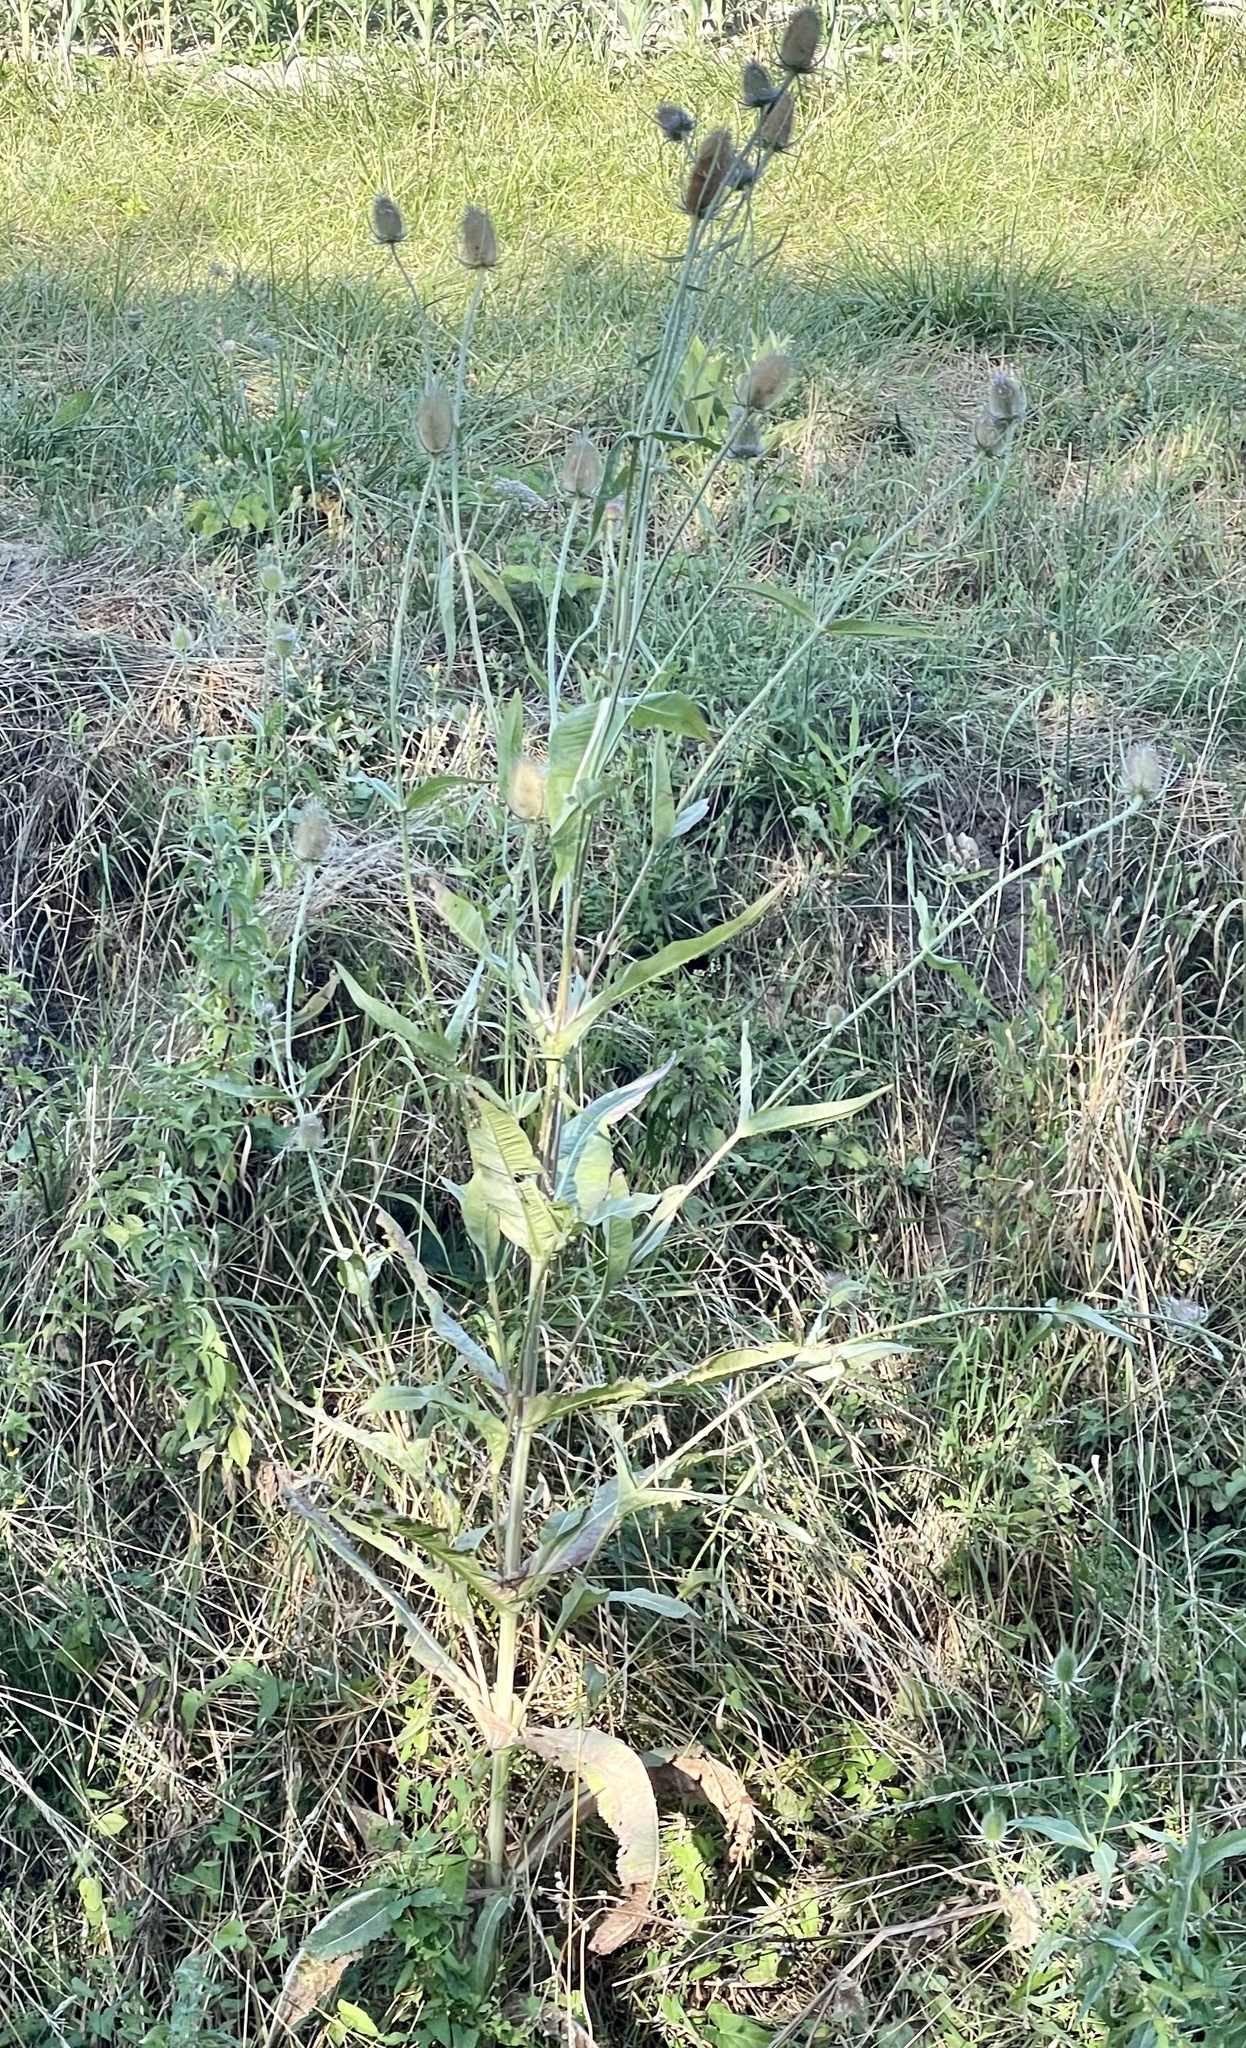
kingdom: Plantae
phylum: Tracheophyta
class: Magnoliopsida
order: Dipsacales
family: Caprifoliaceae
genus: Dipsacus
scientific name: Dipsacus fullonum
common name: Teasel
